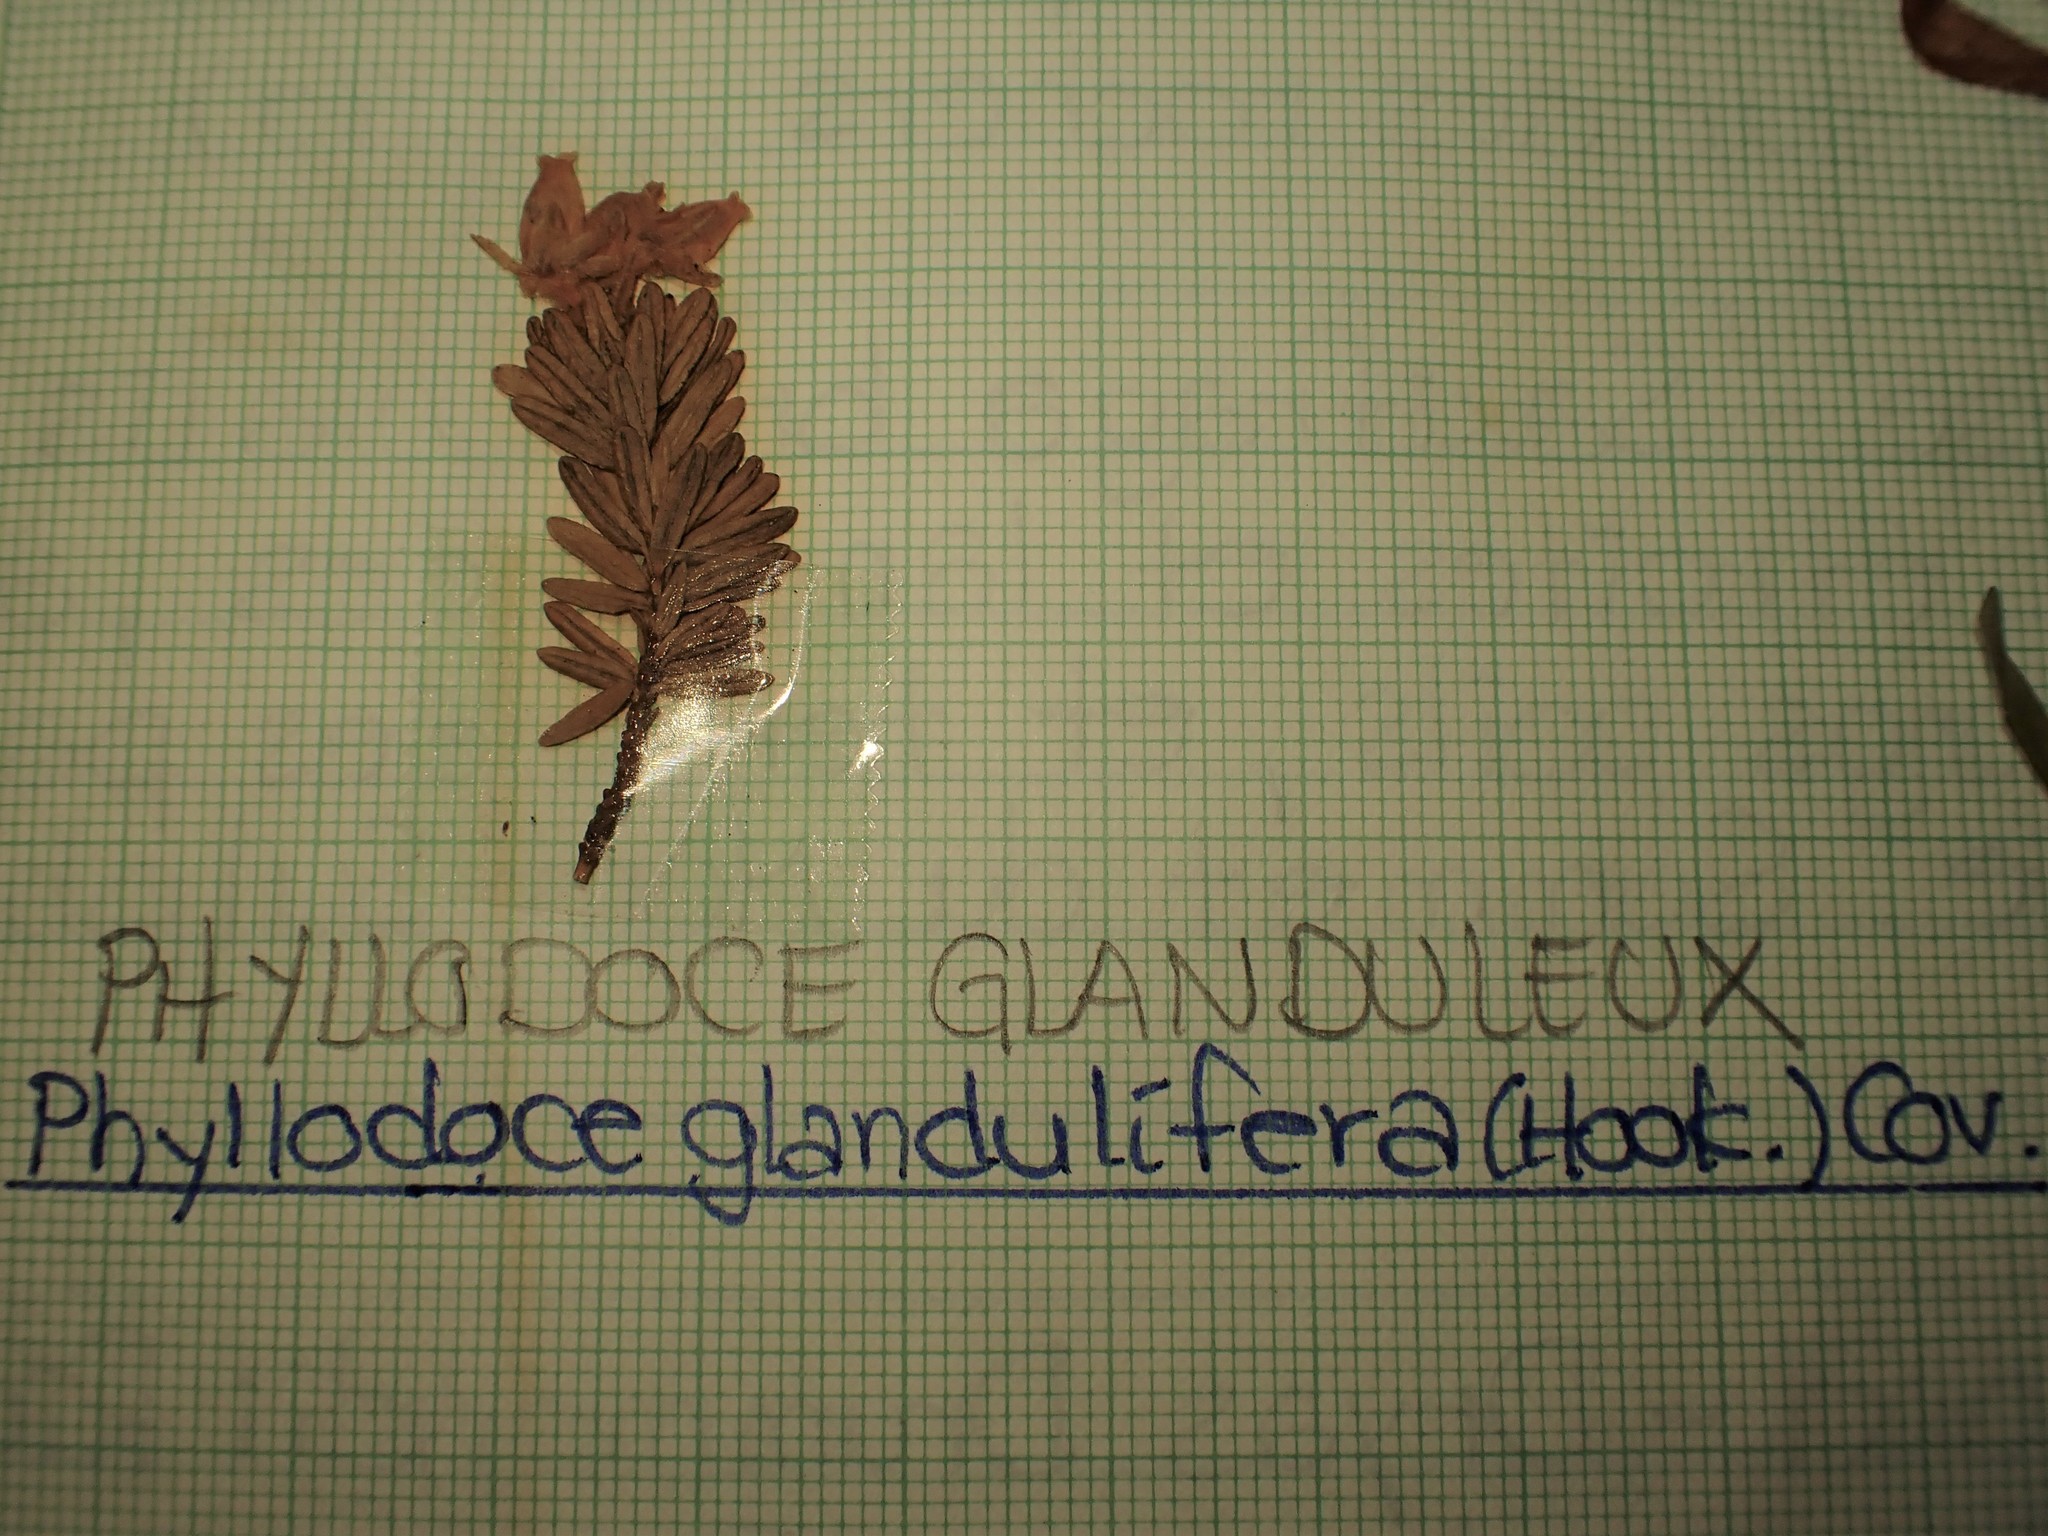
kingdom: Plantae
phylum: Tracheophyta
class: Magnoliopsida
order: Ericales
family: Ericaceae
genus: Phyllodoce
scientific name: Phyllodoce glanduliflora
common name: Cream mountain heather
